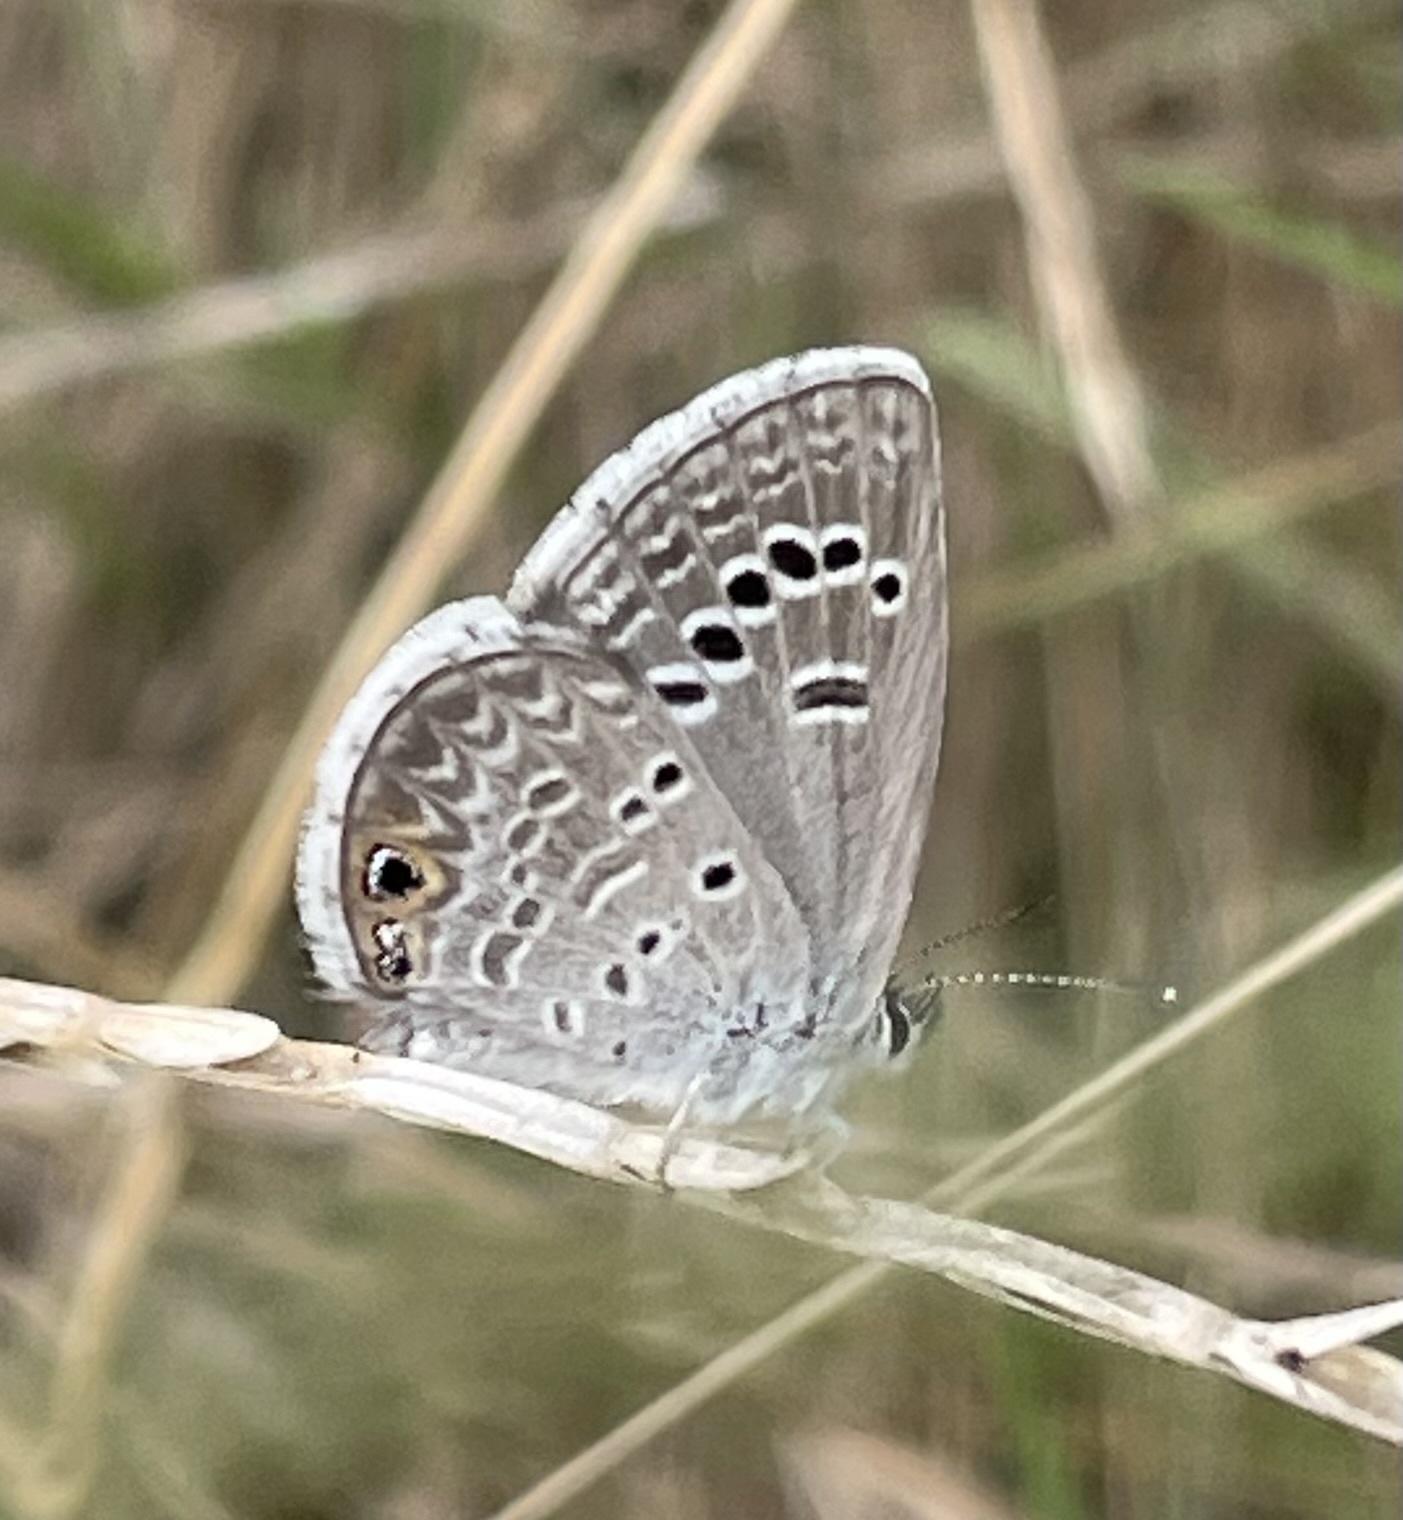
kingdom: Animalia
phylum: Arthropoda
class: Insecta
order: Lepidoptera
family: Lycaenidae
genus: Echinargus
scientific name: Echinargus isola
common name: Reakirt's blue
